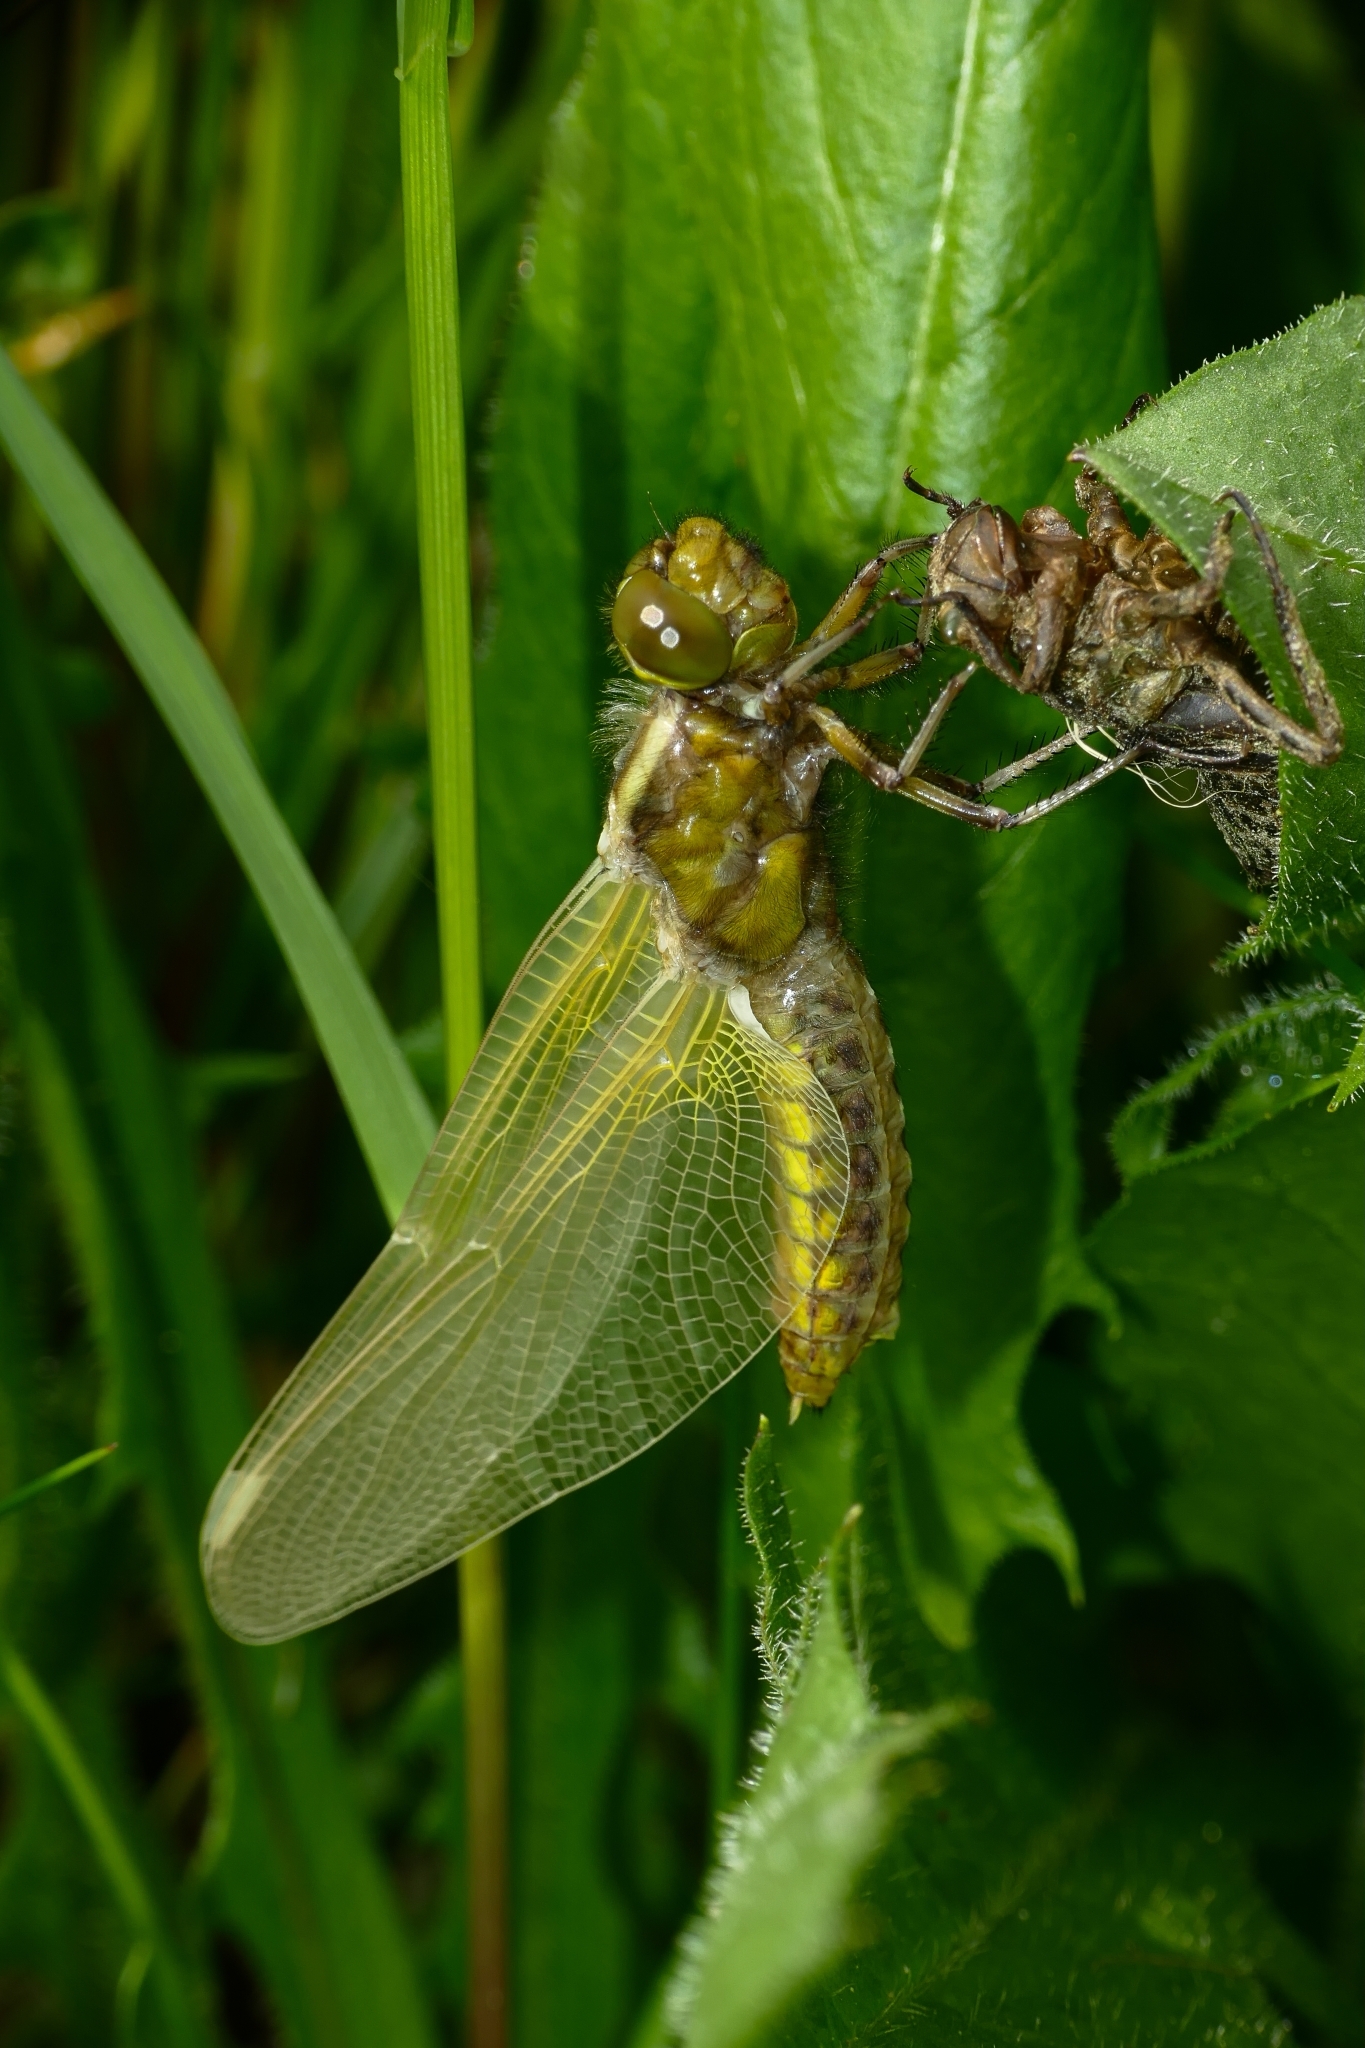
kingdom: Animalia
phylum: Arthropoda
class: Insecta
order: Odonata
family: Libellulidae
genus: Libellula
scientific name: Libellula depressa
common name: Broad-bodied chaser
